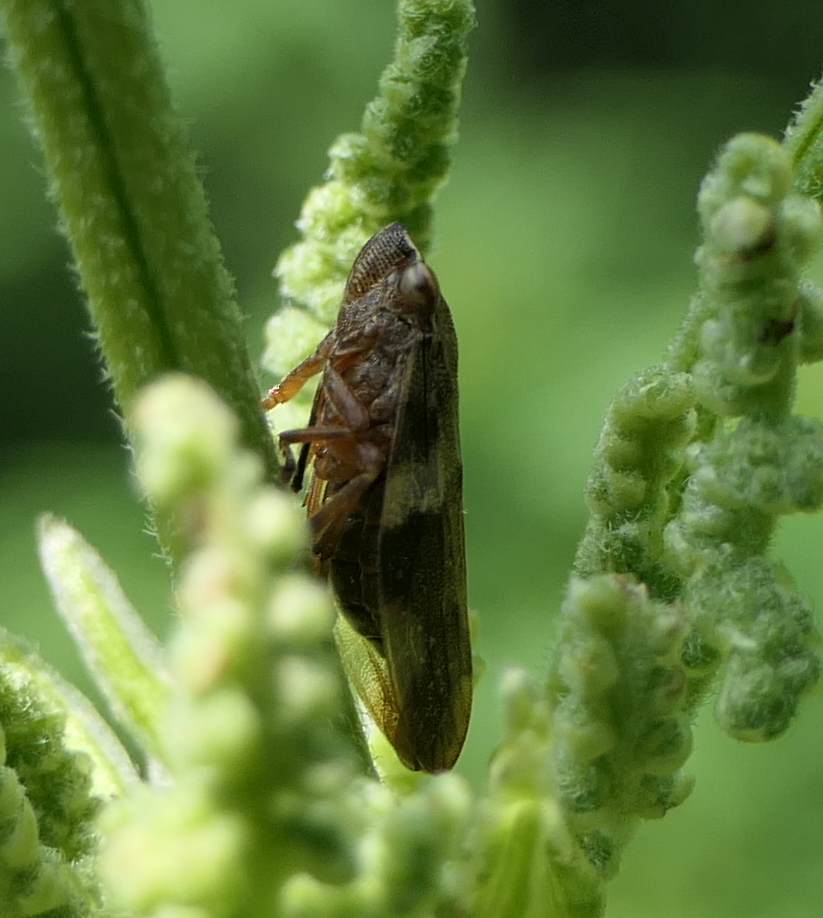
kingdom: Animalia
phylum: Arthropoda
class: Insecta
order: Hemiptera
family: Aphrophoridae
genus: Aphrophora
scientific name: Aphrophora quadrinotata
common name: Four-spotted spittlebug
